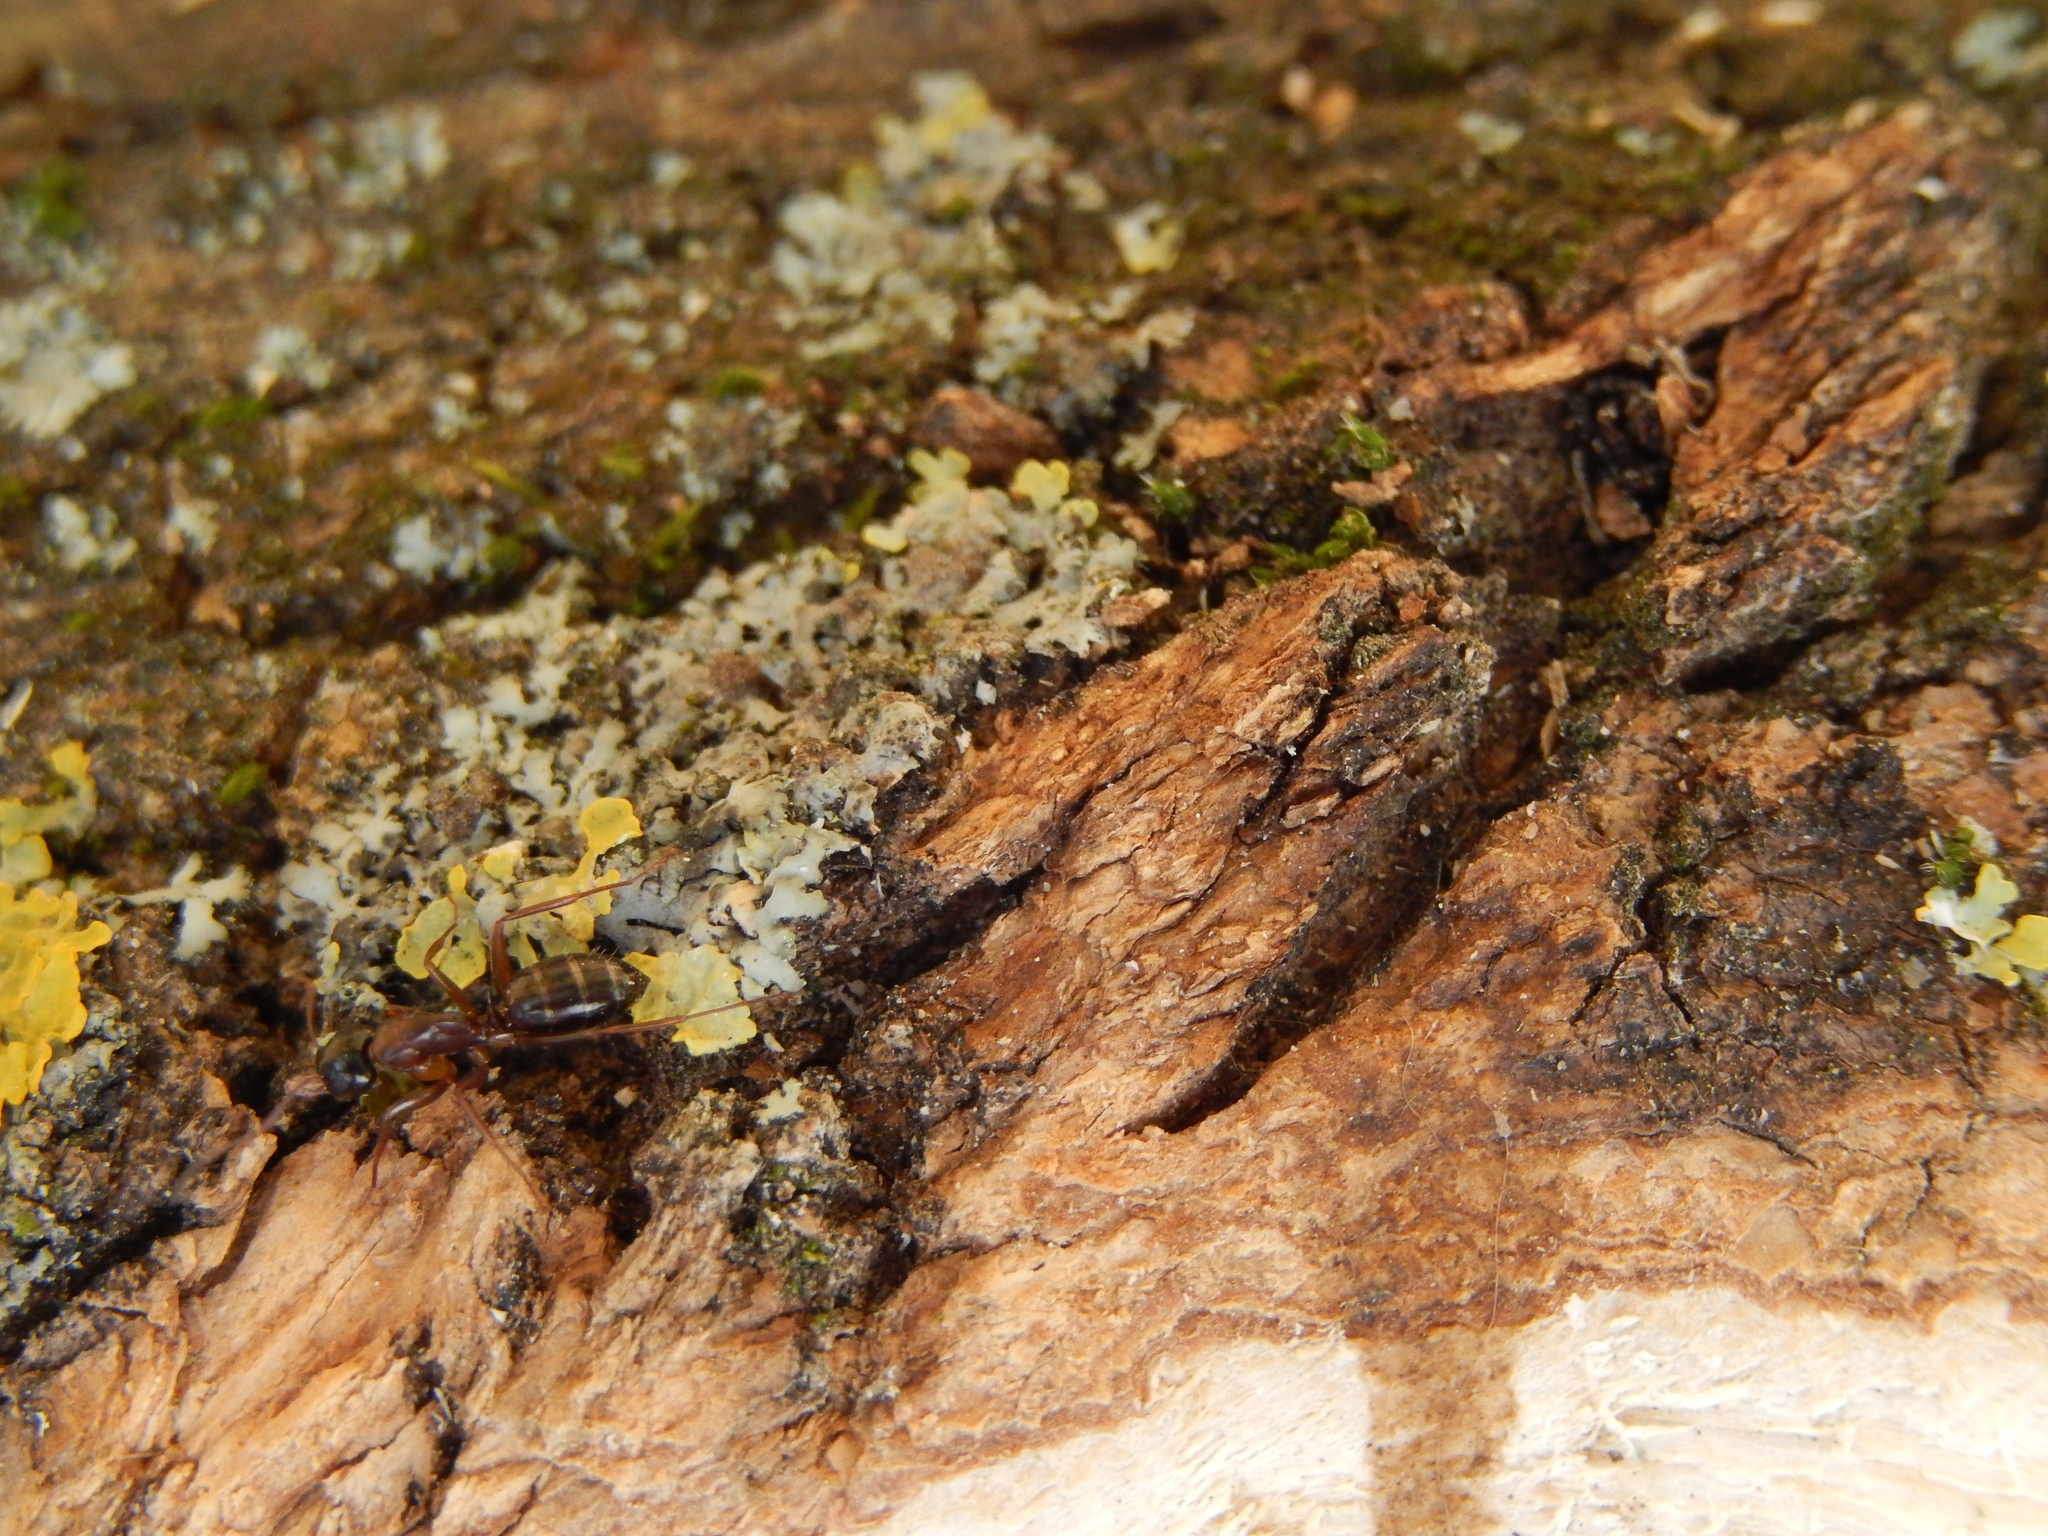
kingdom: Animalia
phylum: Arthropoda
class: Insecta
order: Hymenoptera
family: Formicidae
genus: Camponotus
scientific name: Camponotus fallax
